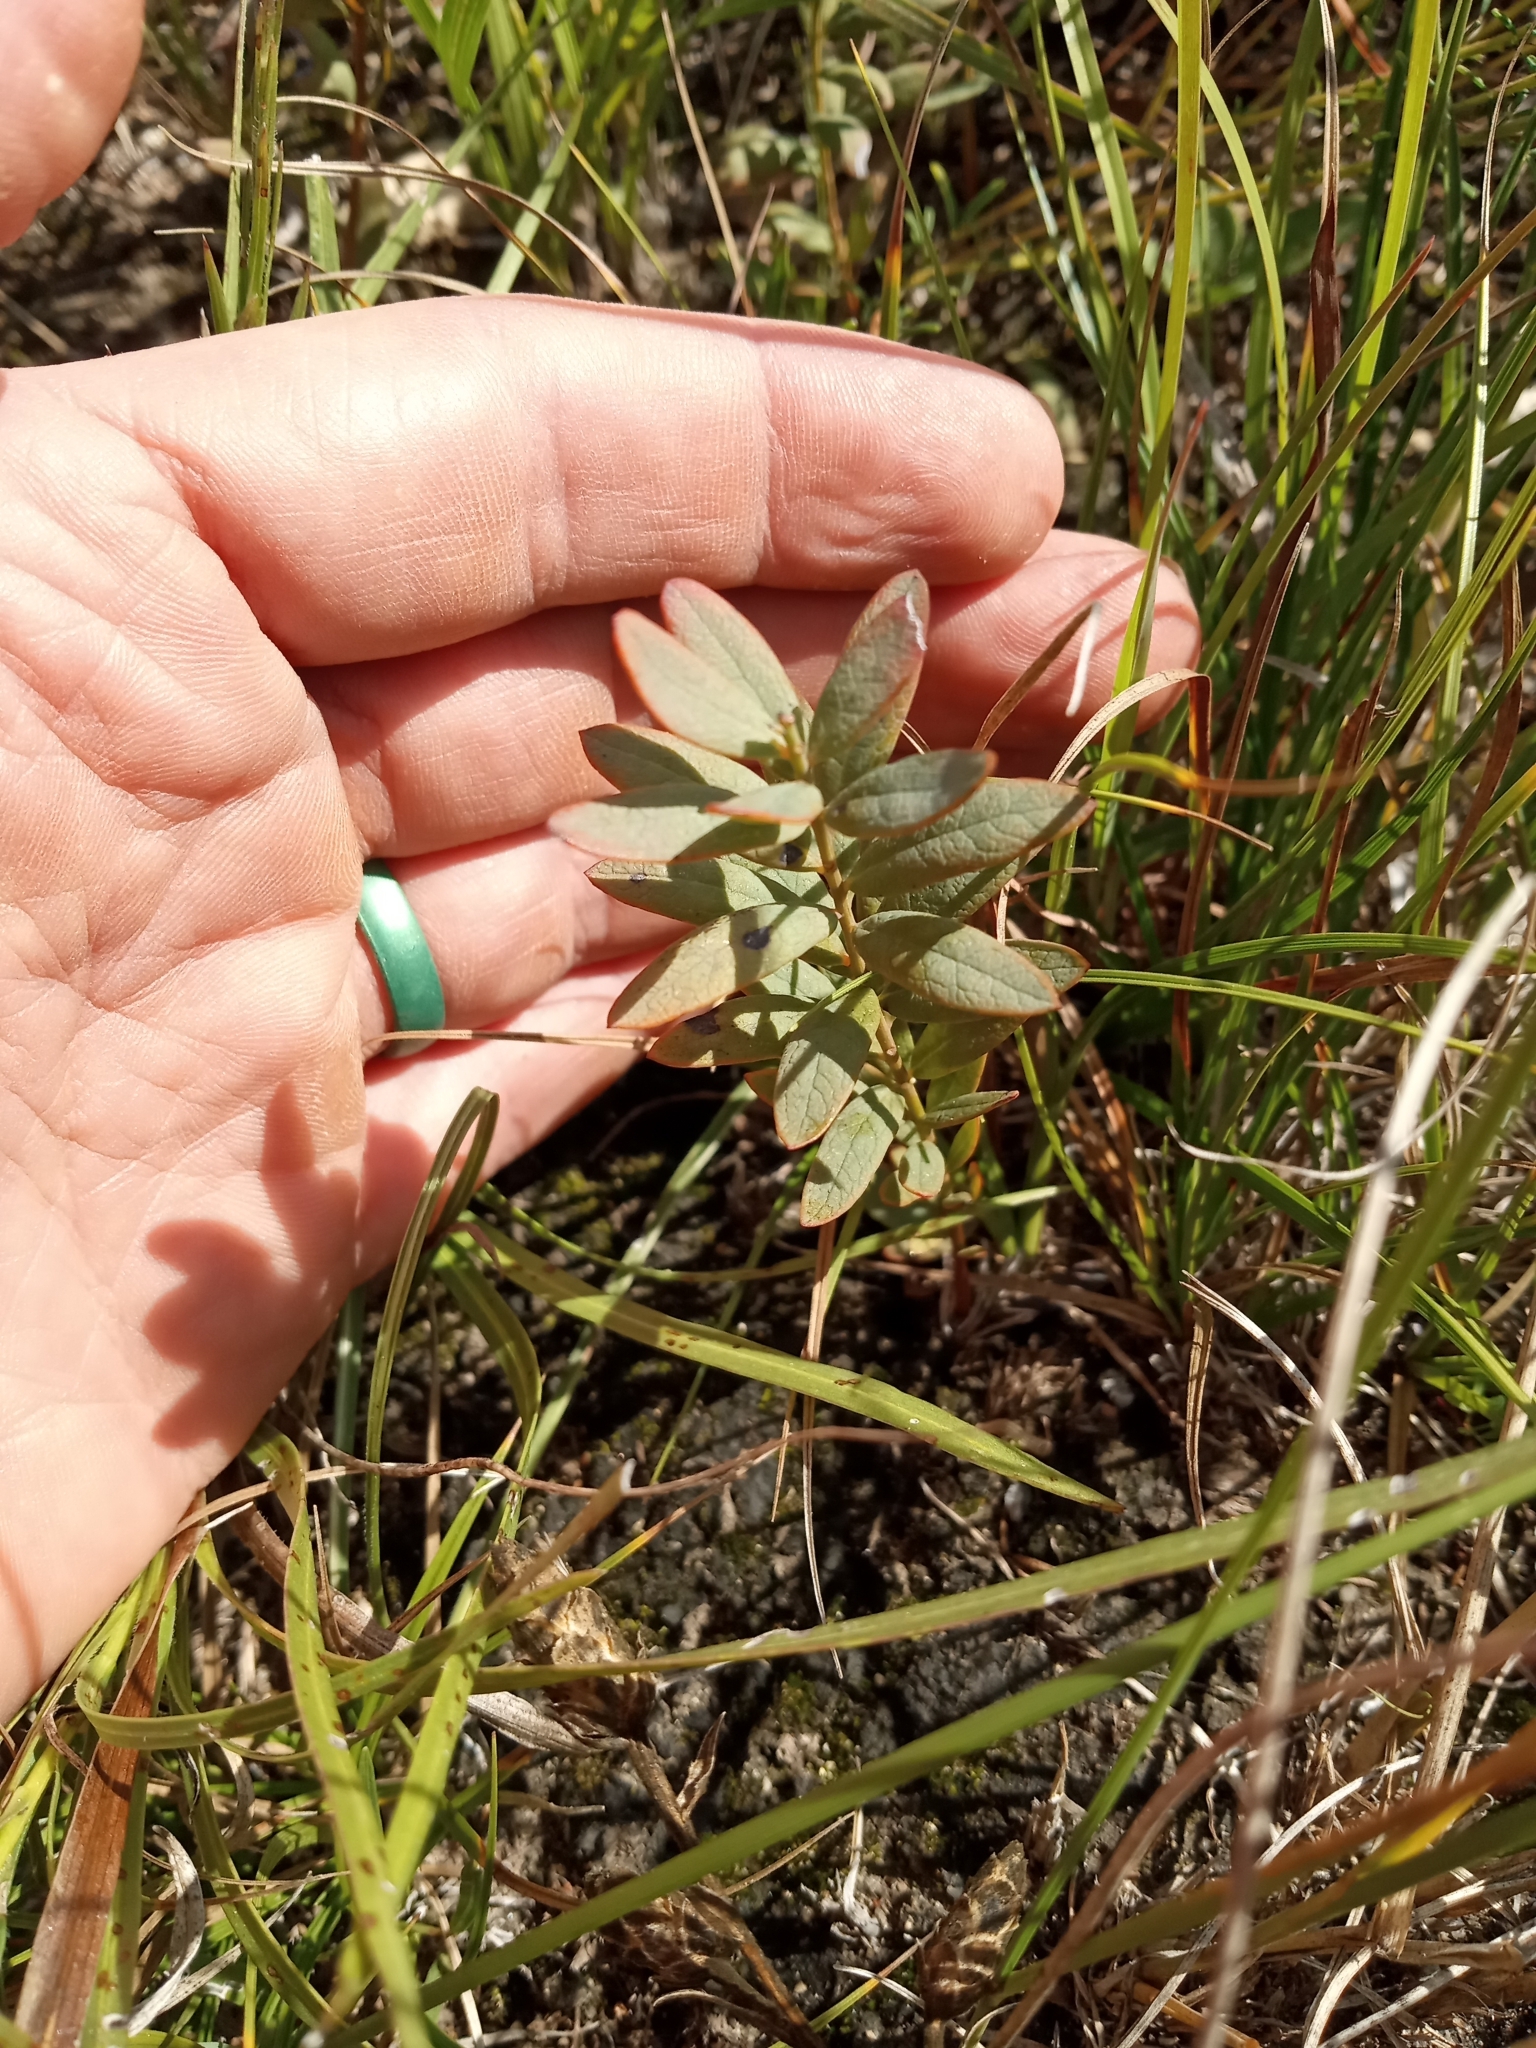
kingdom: Plantae
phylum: Tracheophyta
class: Magnoliopsida
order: Santalales
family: Comandraceae
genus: Comandra
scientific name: Comandra umbellata
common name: Bastard toadflax
